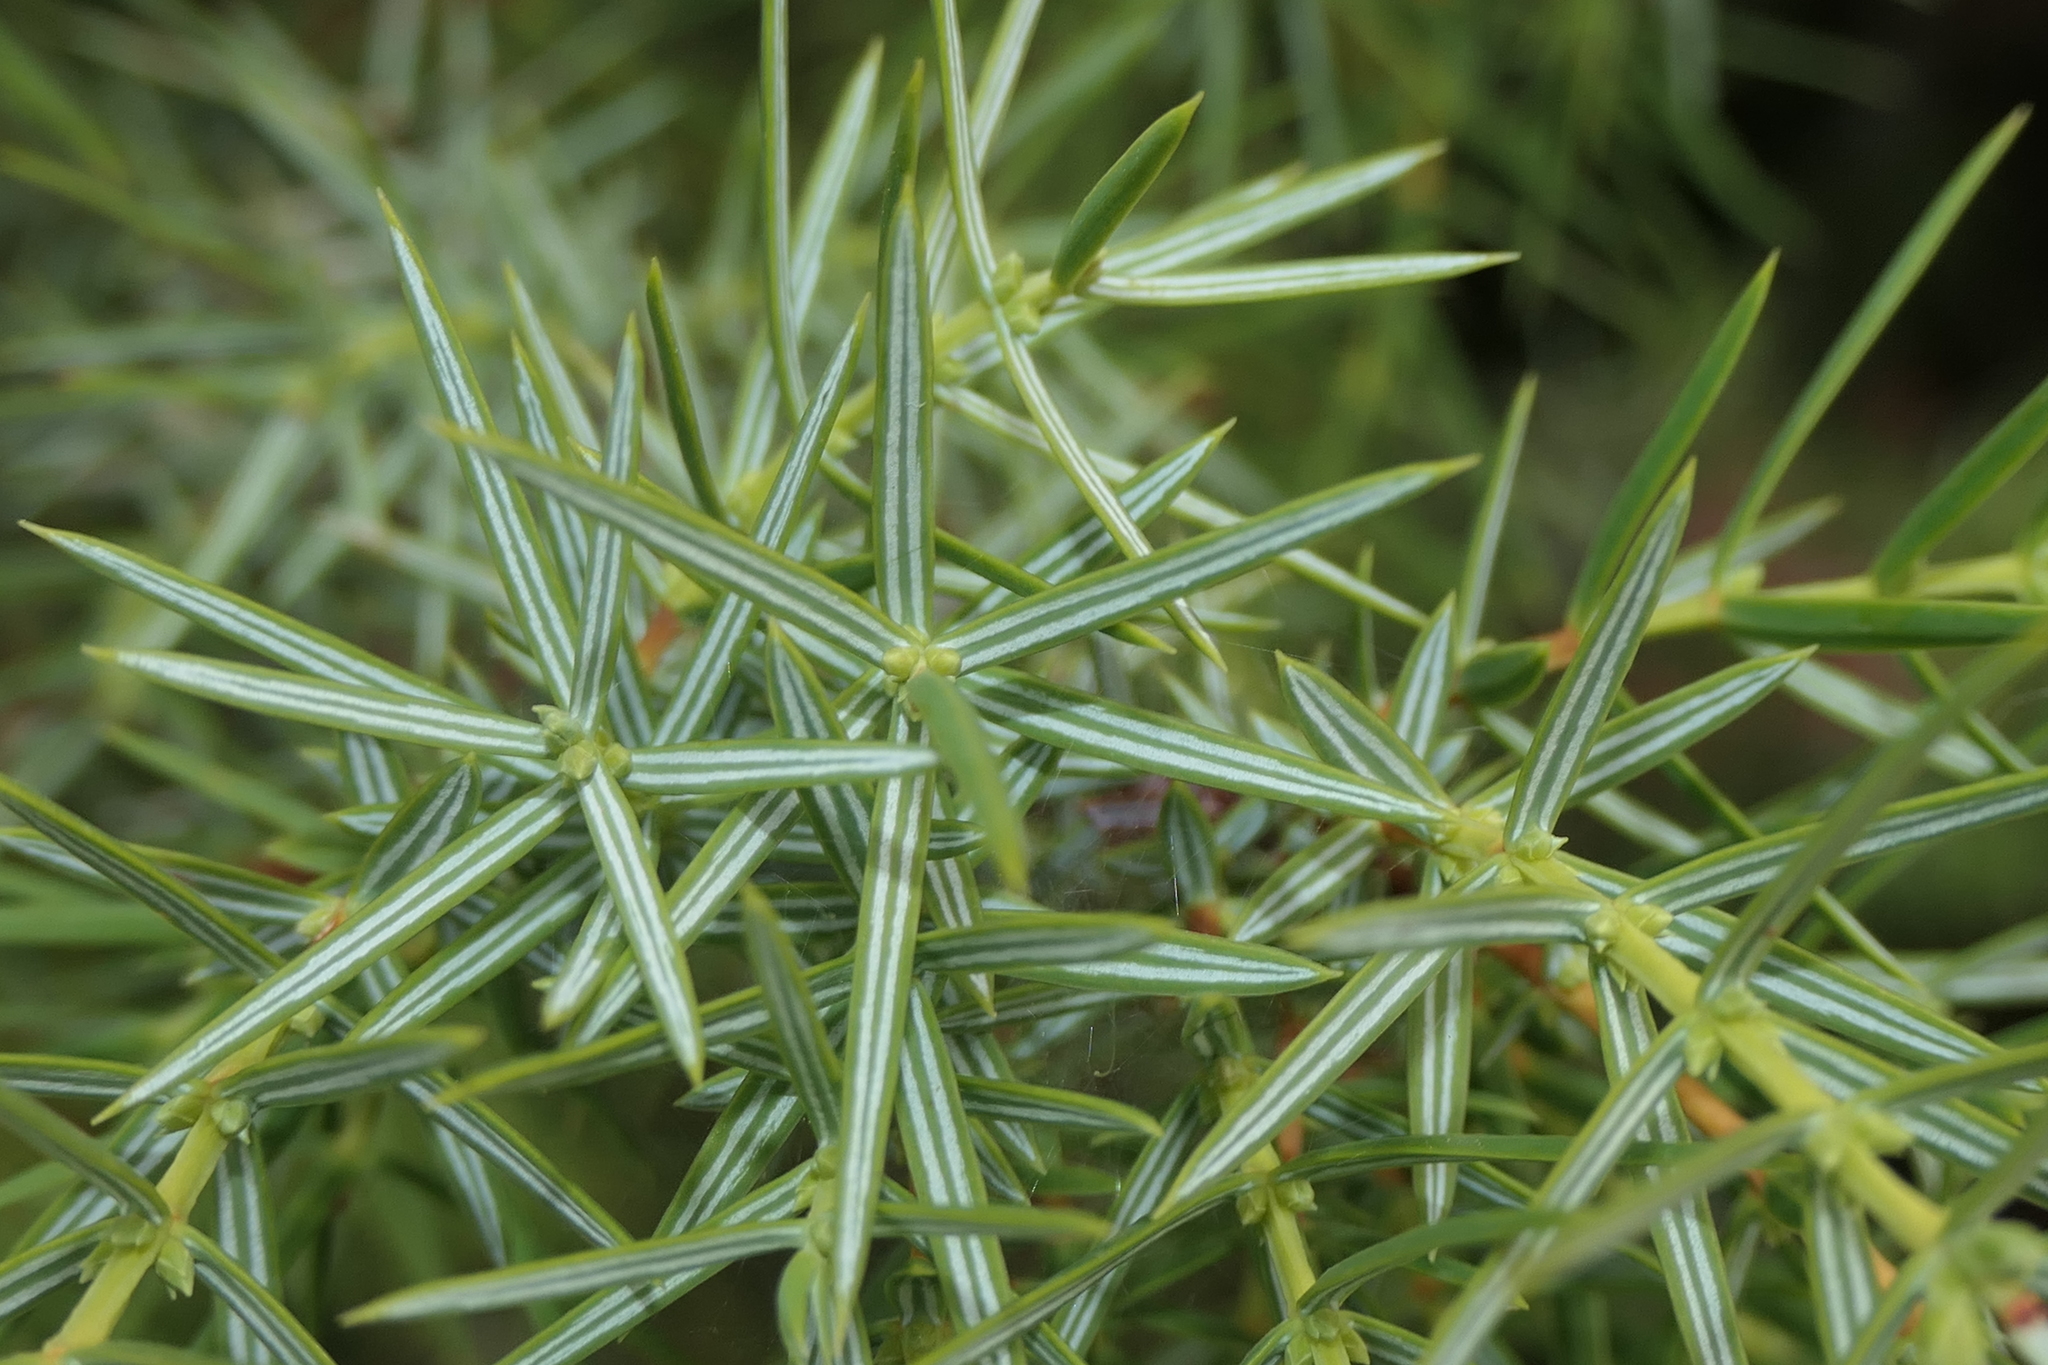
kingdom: Plantae
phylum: Tracheophyta
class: Pinopsida
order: Pinales
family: Cupressaceae
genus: Juniperus
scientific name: Juniperus oxycedrus
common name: Prickly juniper
